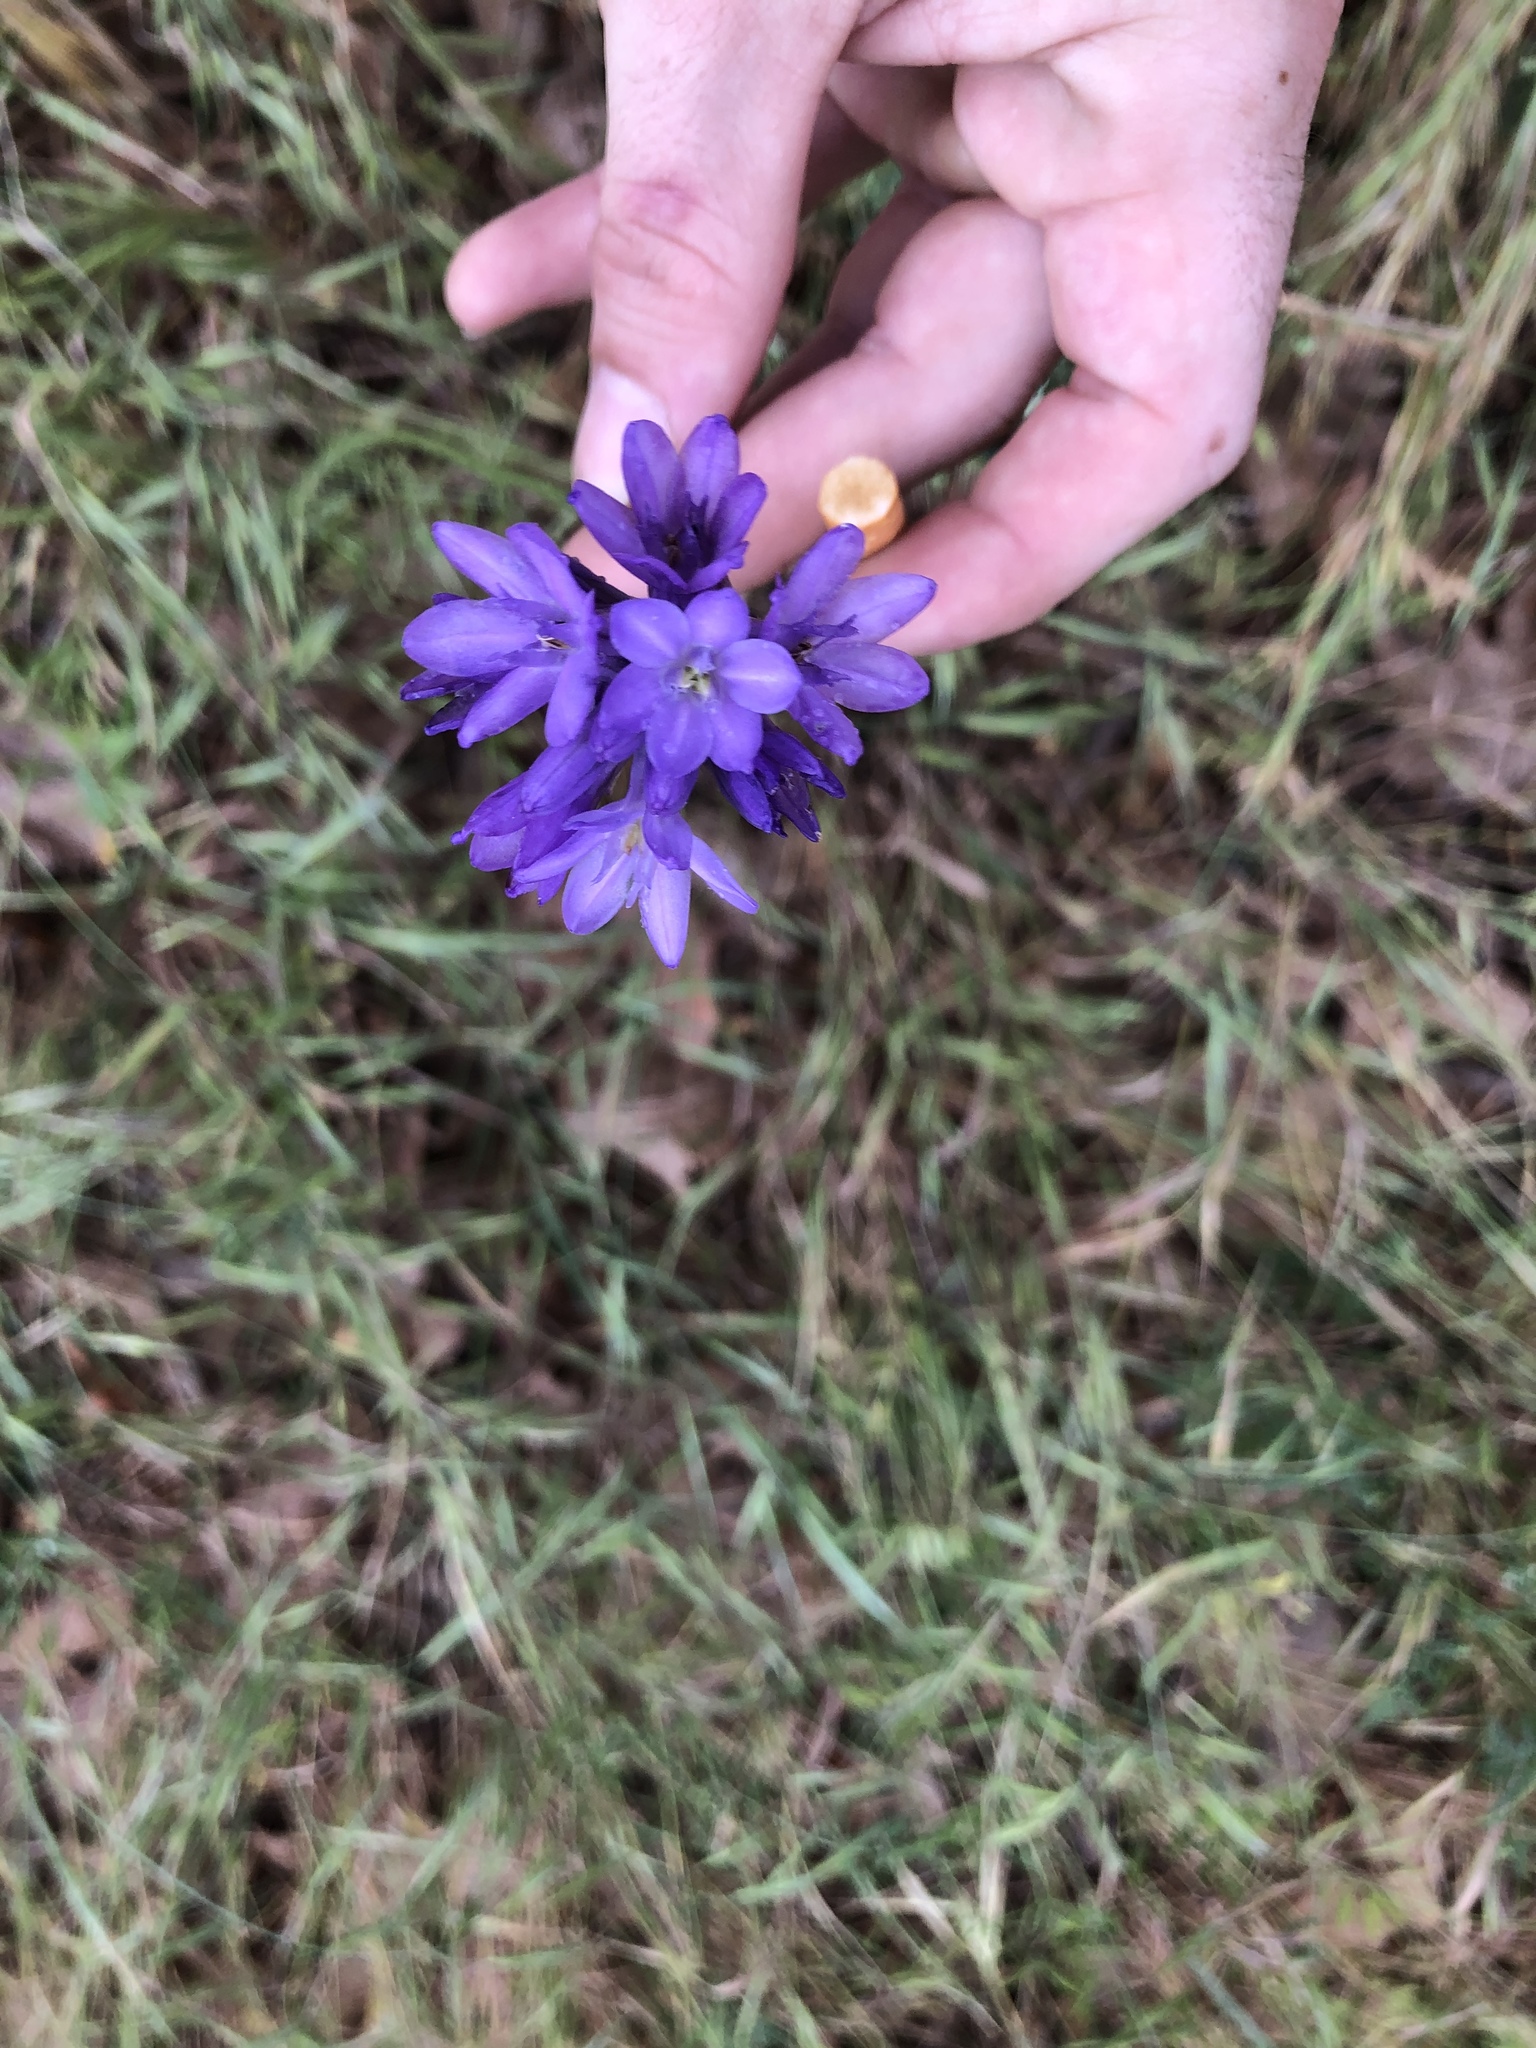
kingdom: Plantae
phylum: Tracheophyta
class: Liliopsida
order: Asparagales
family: Asparagaceae
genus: Dichelostemma
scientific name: Dichelostemma congestum
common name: Fork-tooth ookow
